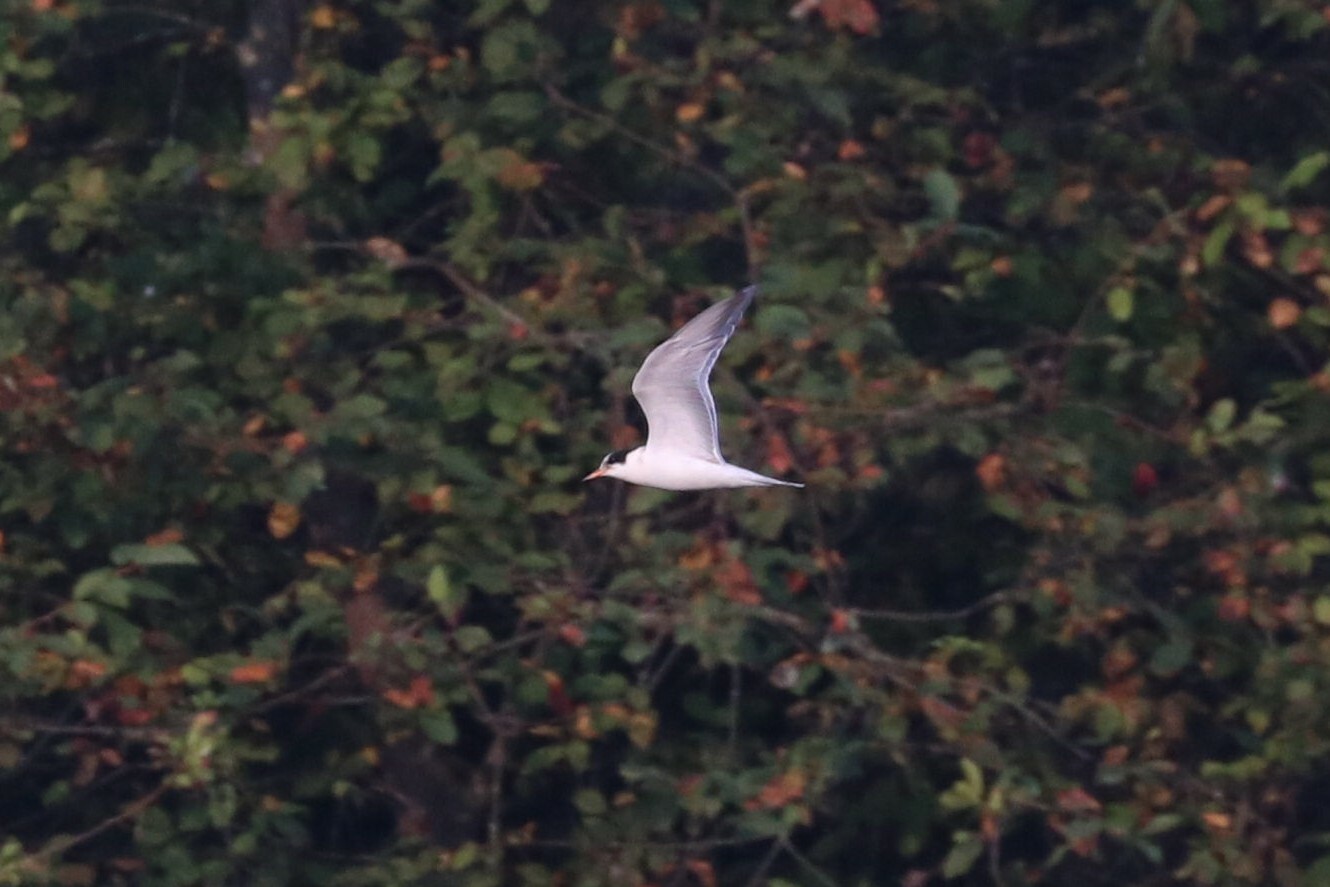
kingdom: Animalia
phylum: Chordata
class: Aves
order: Charadriiformes
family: Laridae
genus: Sterna
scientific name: Sterna hirundo
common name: Common tern
